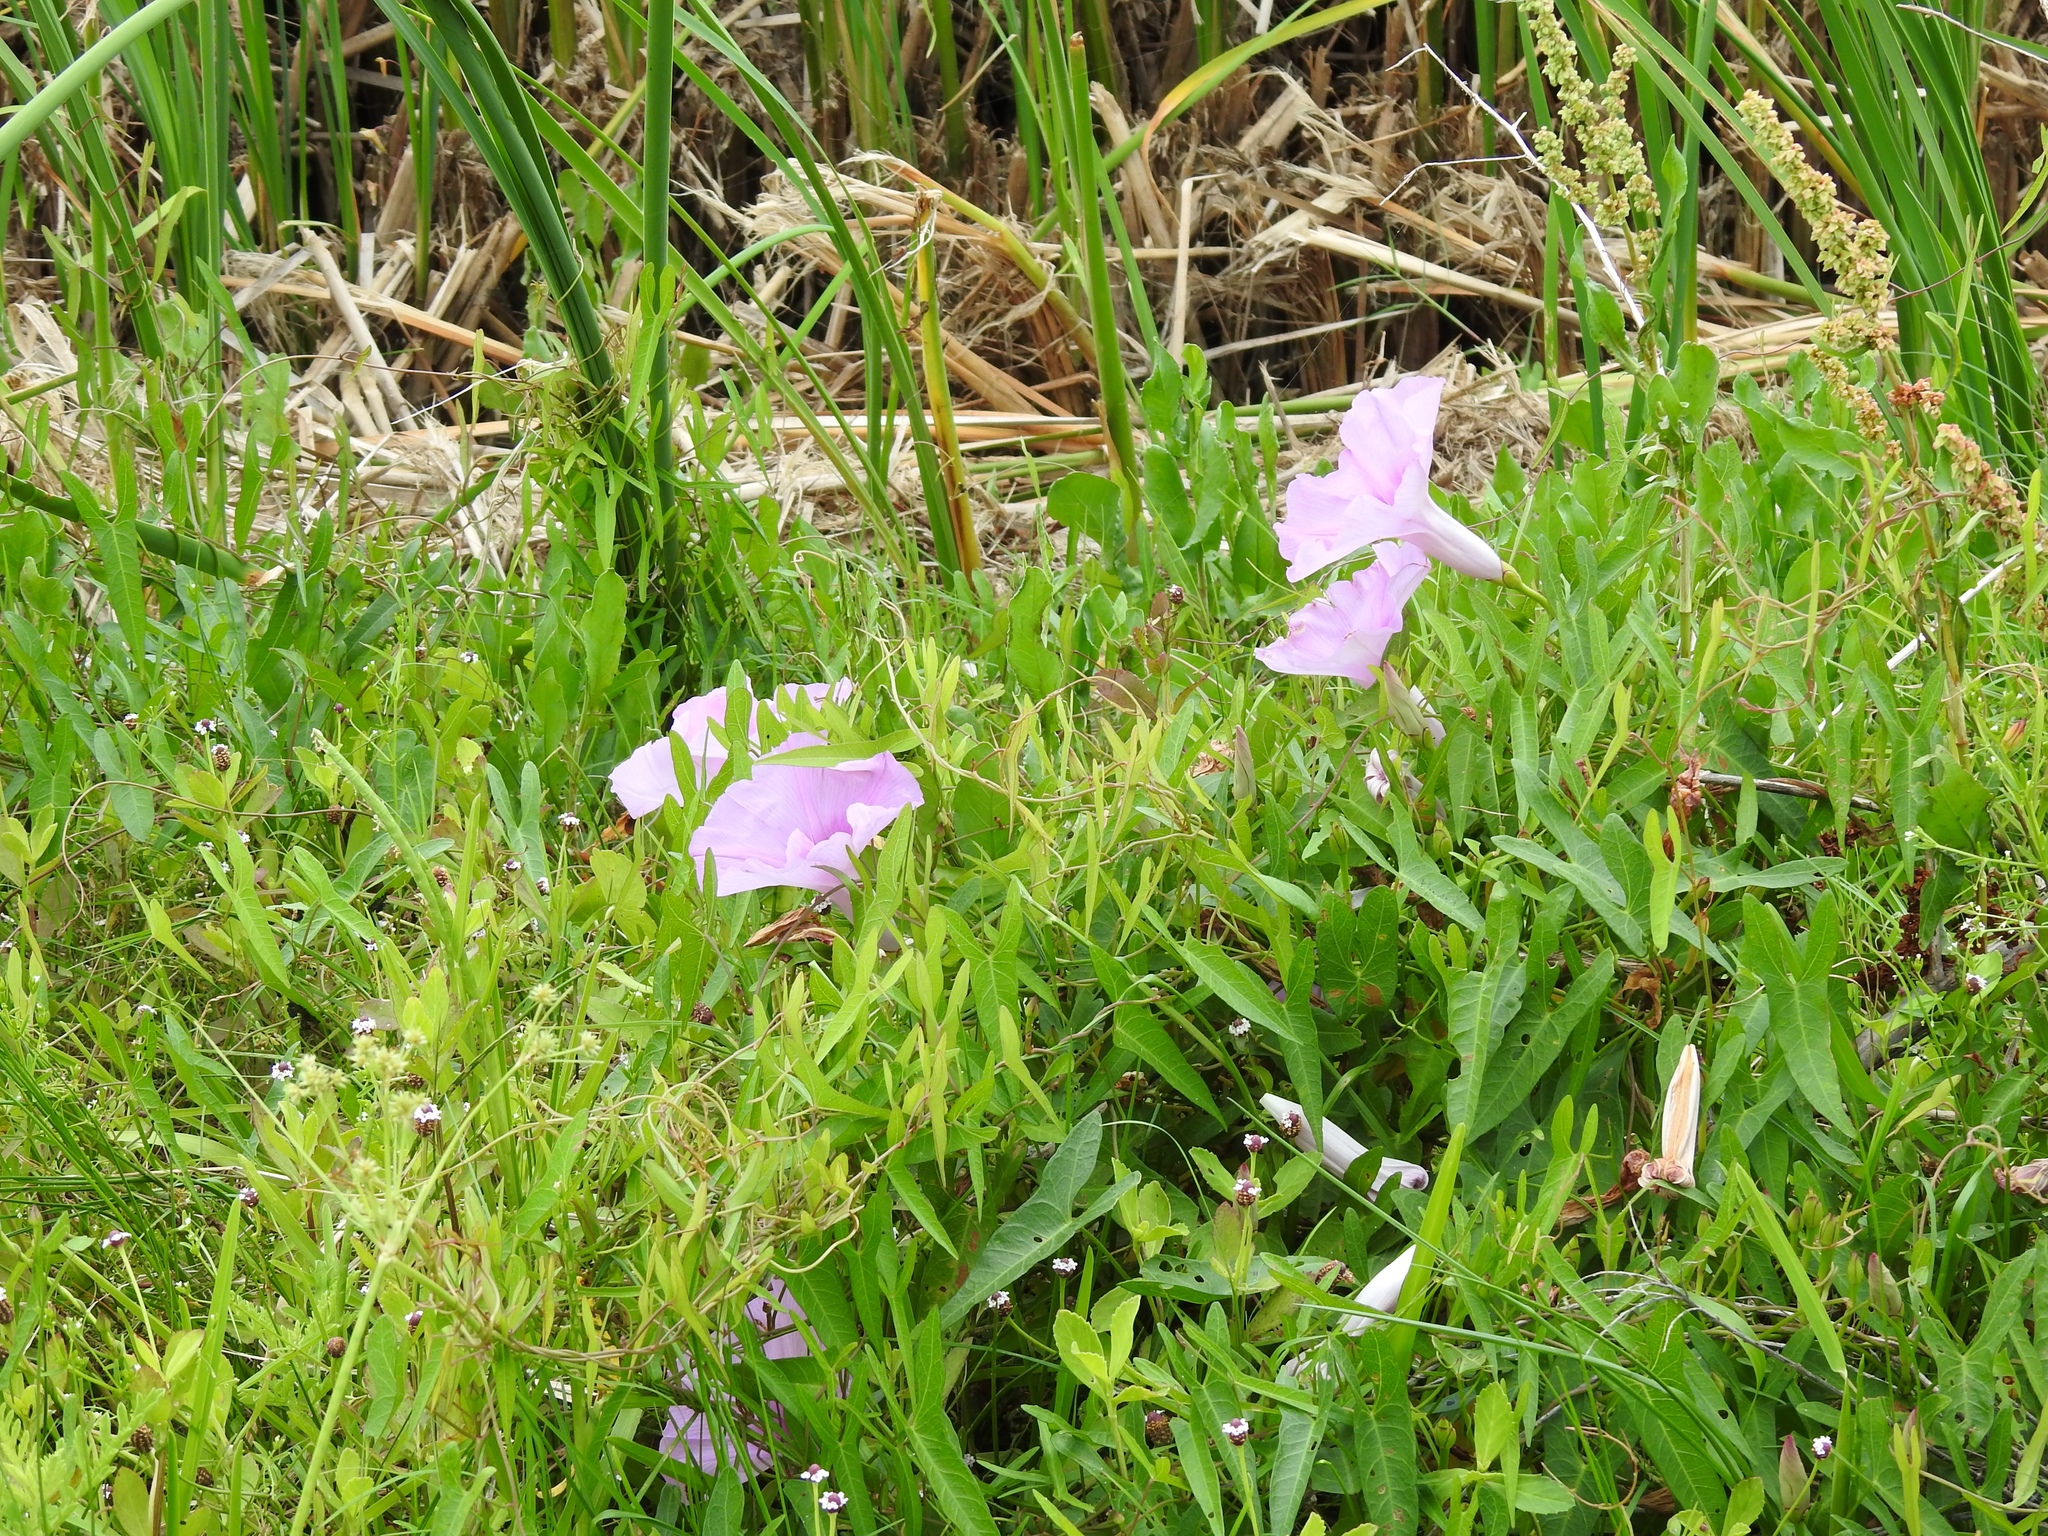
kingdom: Plantae
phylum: Tracheophyta
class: Magnoliopsida
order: Solanales
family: Convolvulaceae
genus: Ipomoea
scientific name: Ipomoea sagittata
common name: Saltmarsh morning glory
